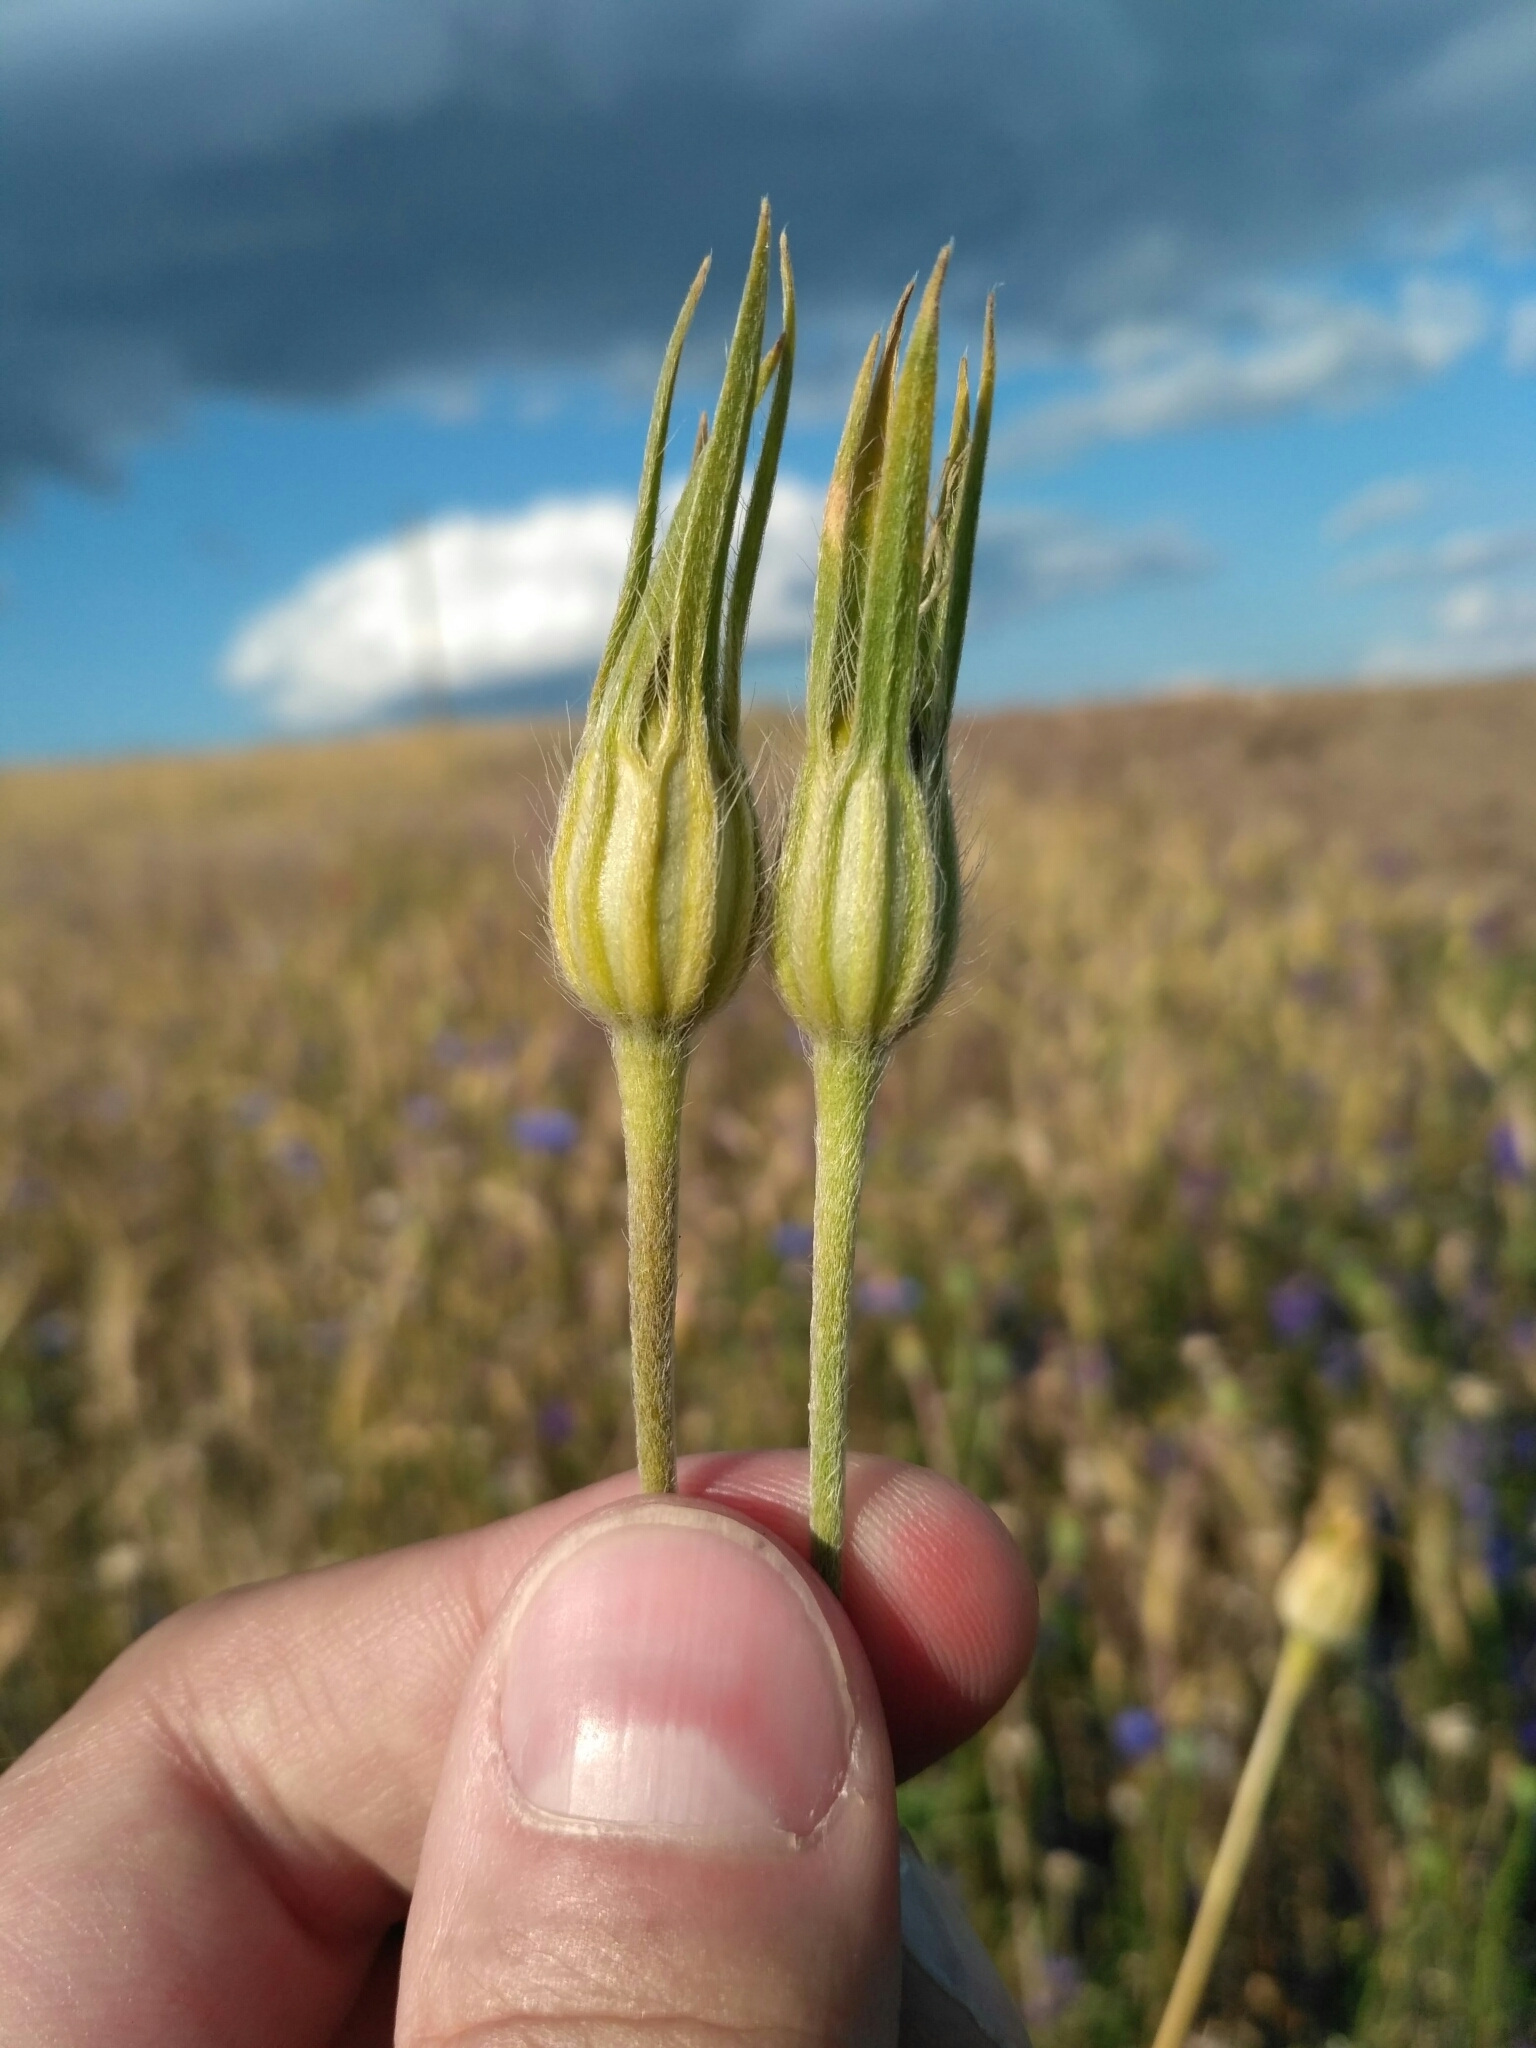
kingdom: Plantae
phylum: Tracheophyta
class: Magnoliopsida
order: Caryophyllales
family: Caryophyllaceae
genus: Agrostemma
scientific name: Agrostemma githago
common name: Common corncockle
